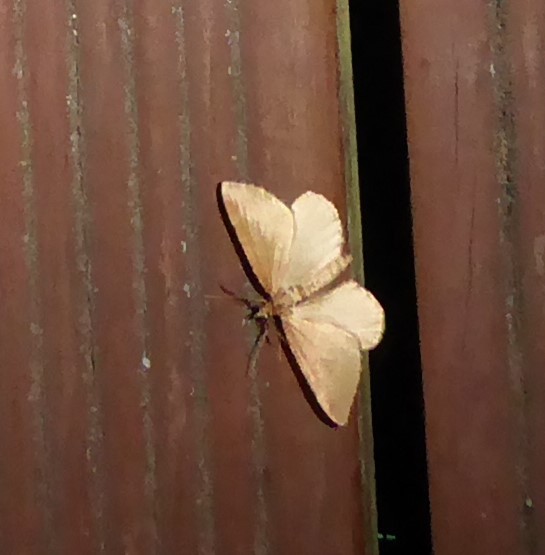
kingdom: Animalia
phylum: Arthropoda
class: Insecta
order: Lepidoptera
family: Geometridae
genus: Xanthorhoe
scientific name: Xanthorhoe occulta
